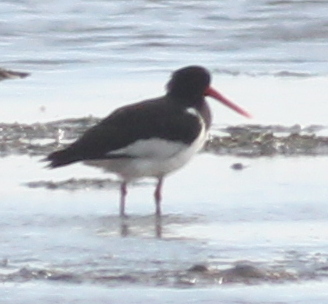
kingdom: Animalia
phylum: Chordata
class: Aves
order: Charadriiformes
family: Haematopodidae
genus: Haematopus
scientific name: Haematopus ostralegus
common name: Eurasian oystercatcher
